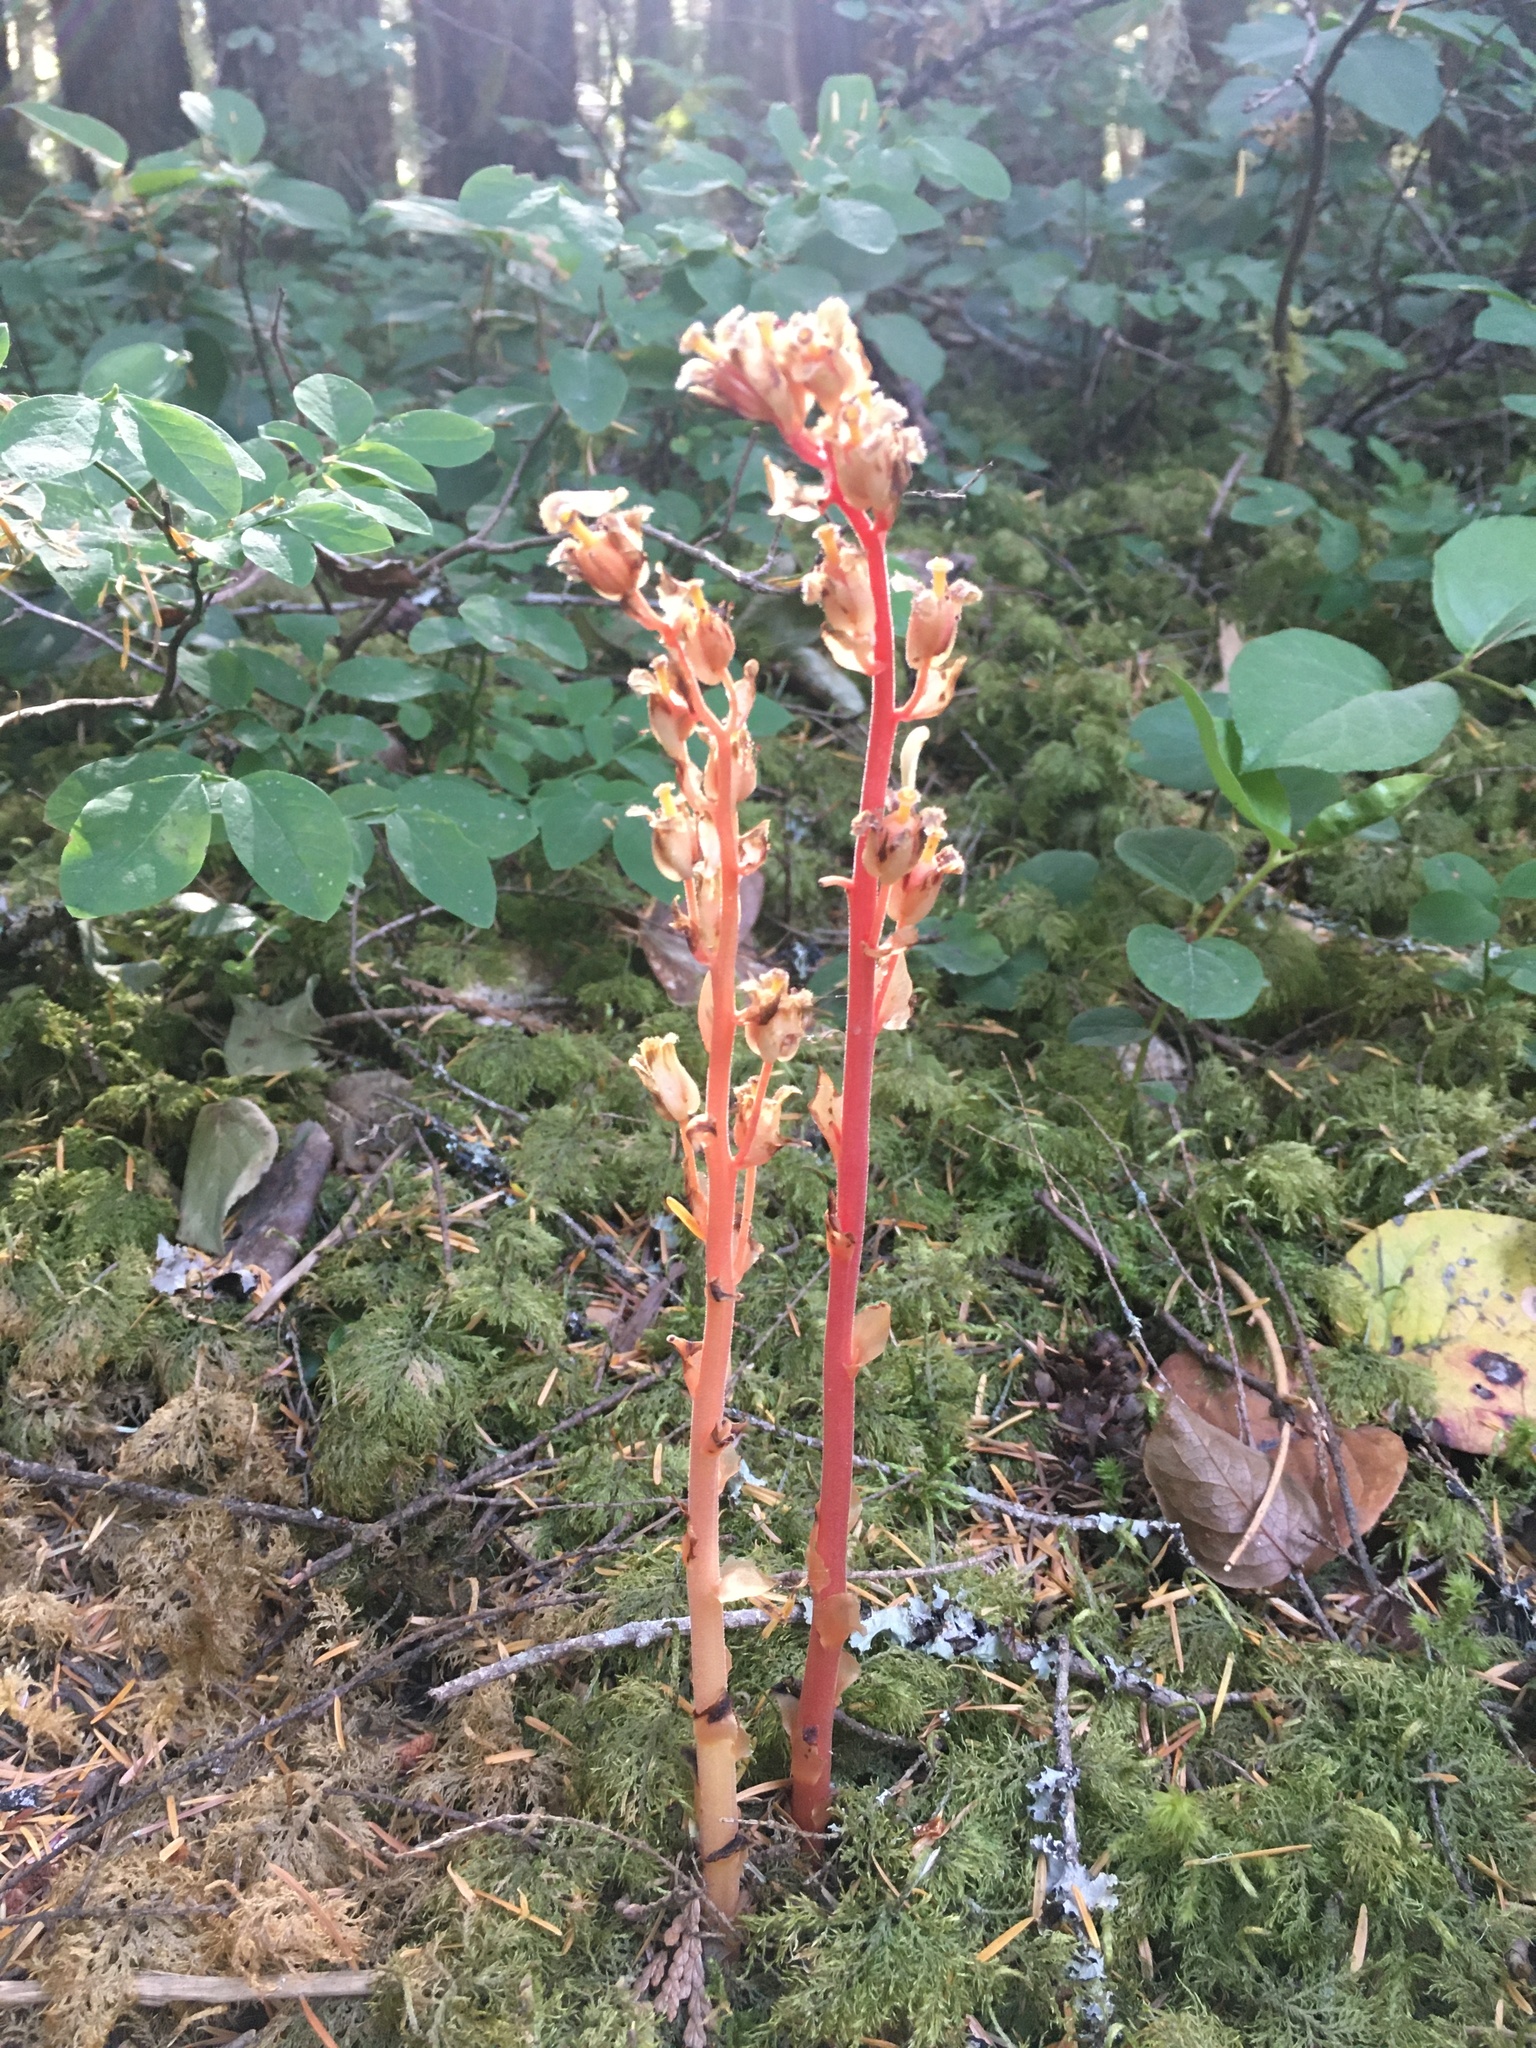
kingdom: Plantae
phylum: Tracheophyta
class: Magnoliopsida
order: Ericales
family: Ericaceae
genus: Hypopitys
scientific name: Hypopitys monotropa
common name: Yellow bird's-nest
